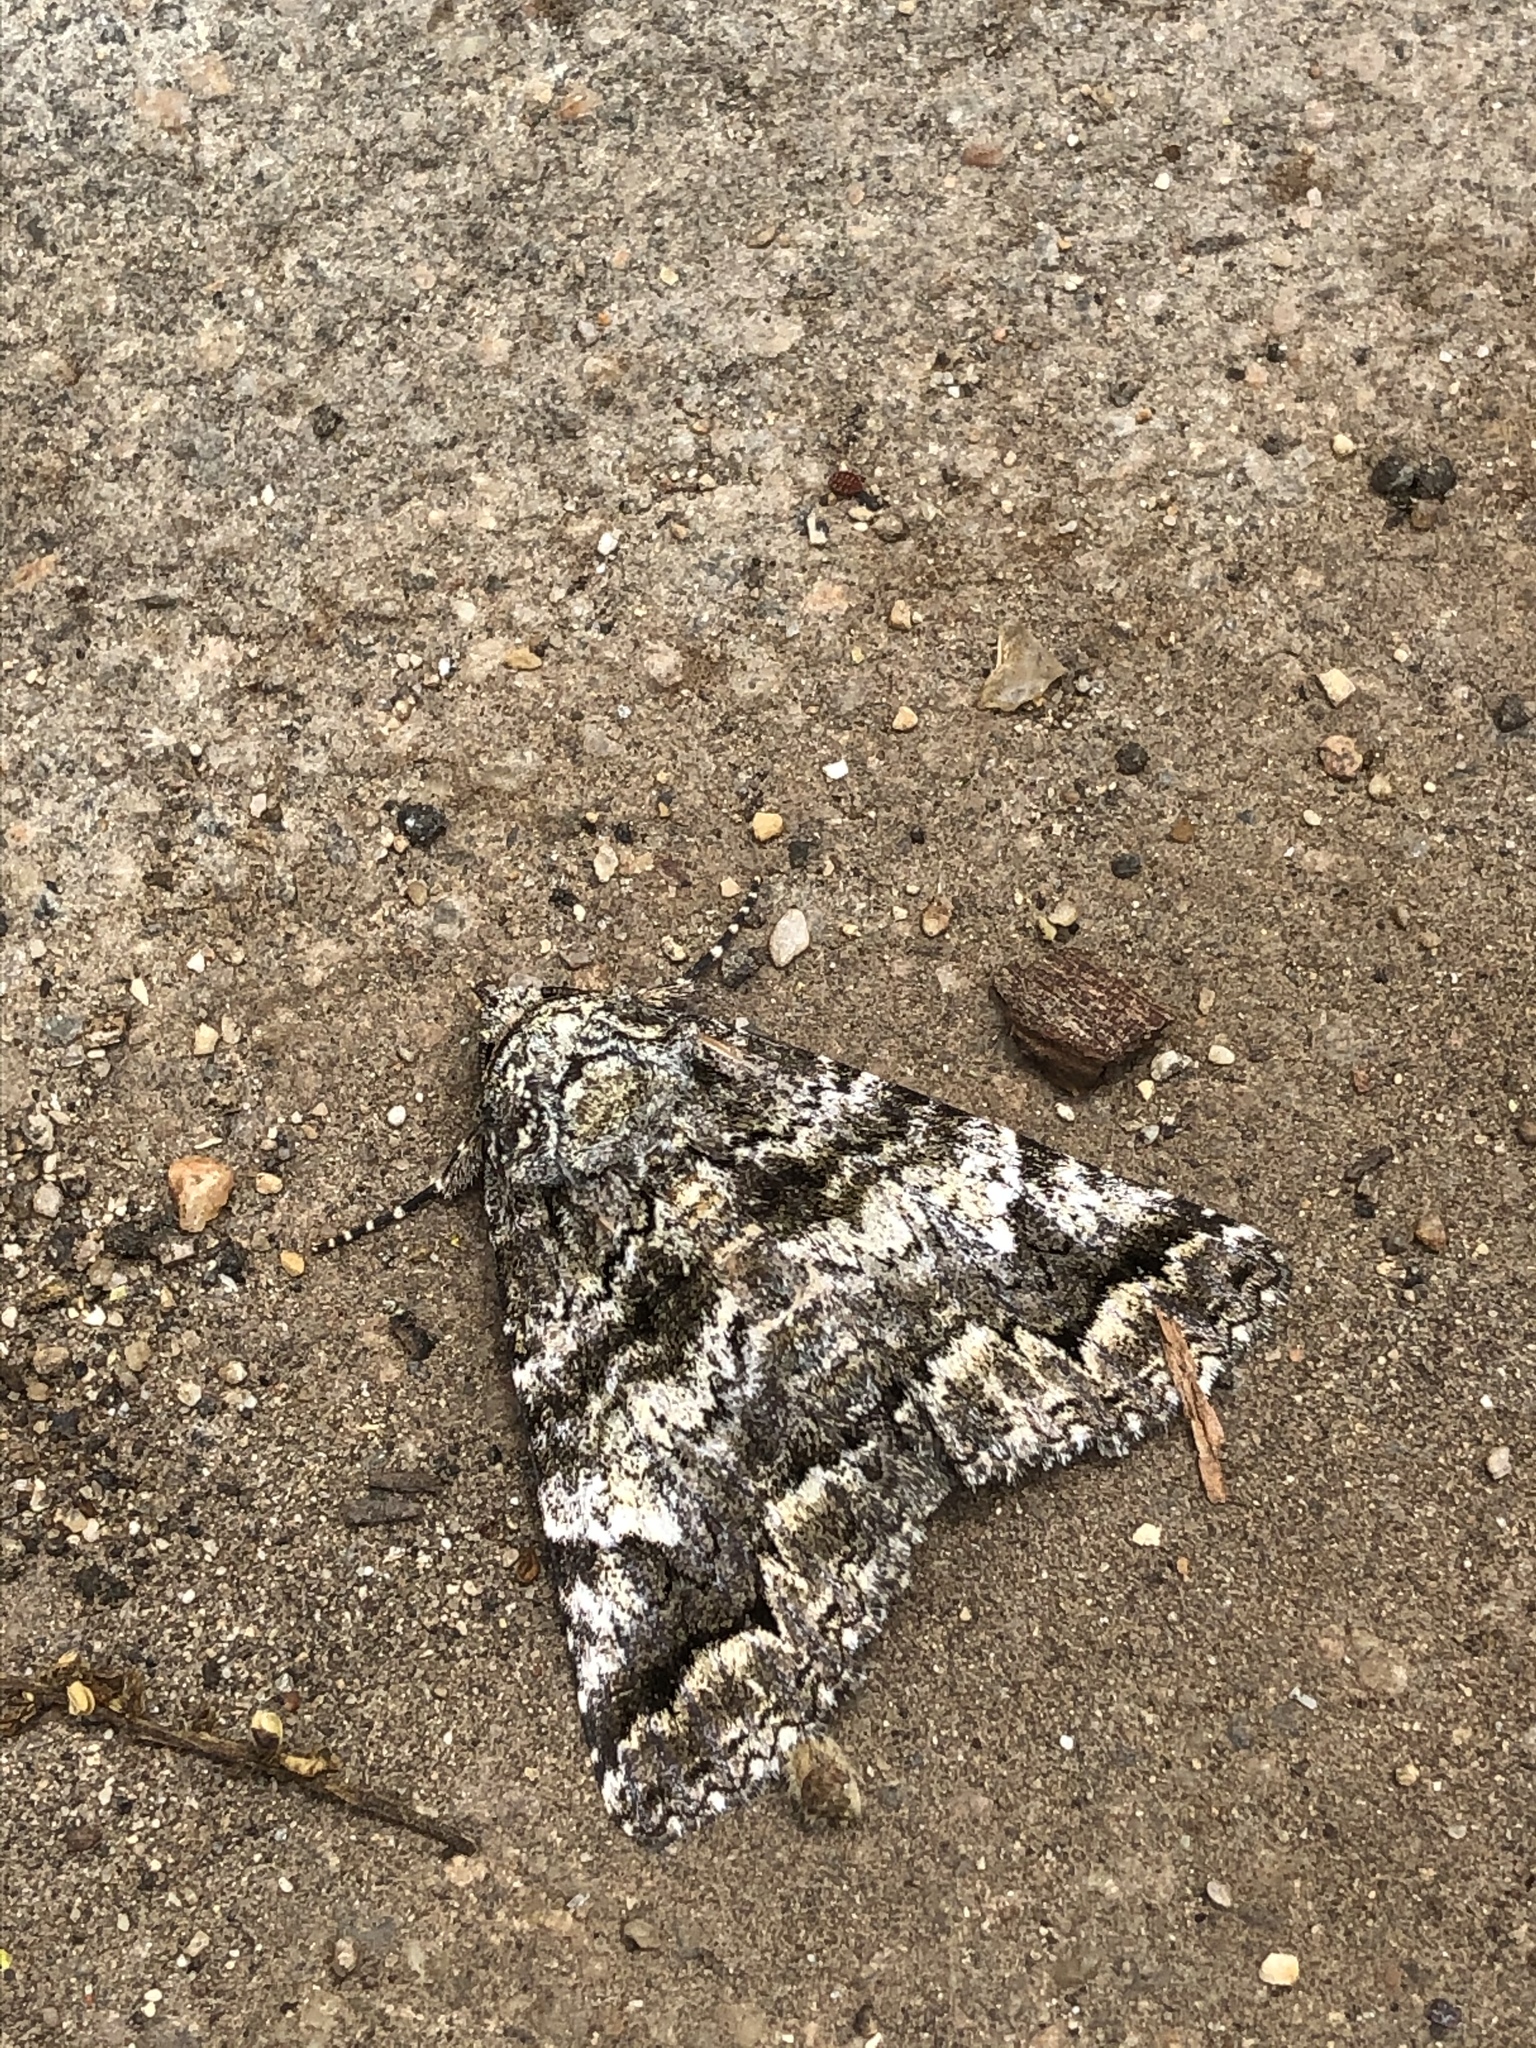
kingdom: Animalia
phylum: Arthropoda
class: Insecta
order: Lepidoptera
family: Erebidae
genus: Metria
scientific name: Metria amella
